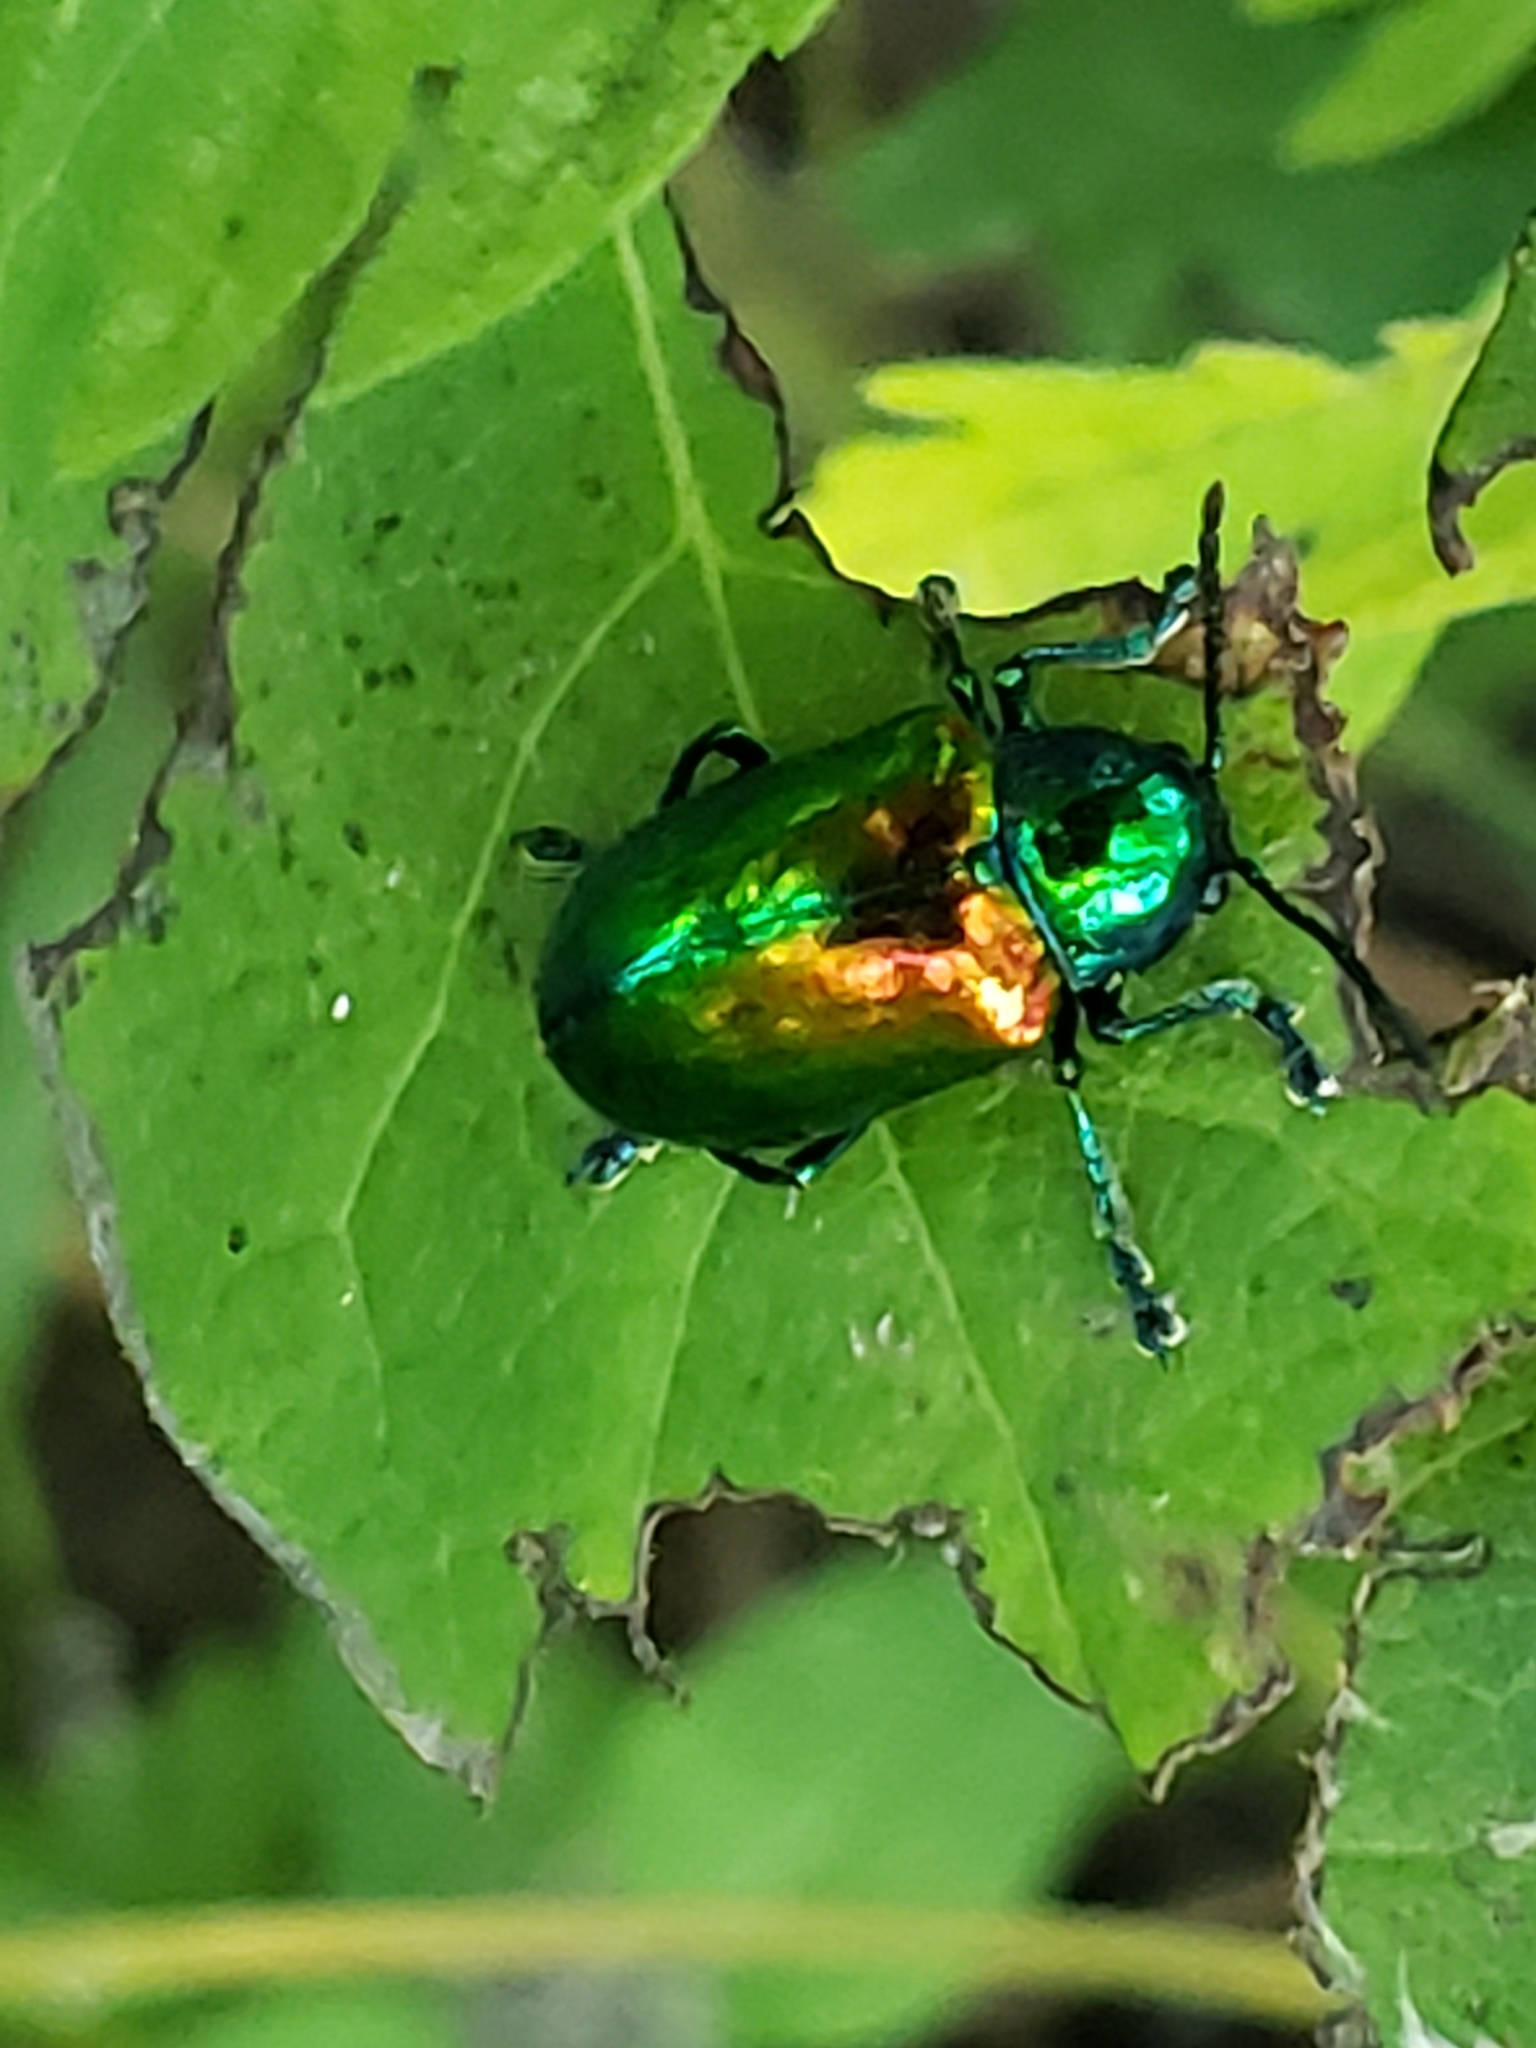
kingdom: Animalia
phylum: Arthropoda
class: Insecta
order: Coleoptera
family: Chrysomelidae
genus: Chrysochus
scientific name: Chrysochus auratus
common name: Dogbane leaf beetle
